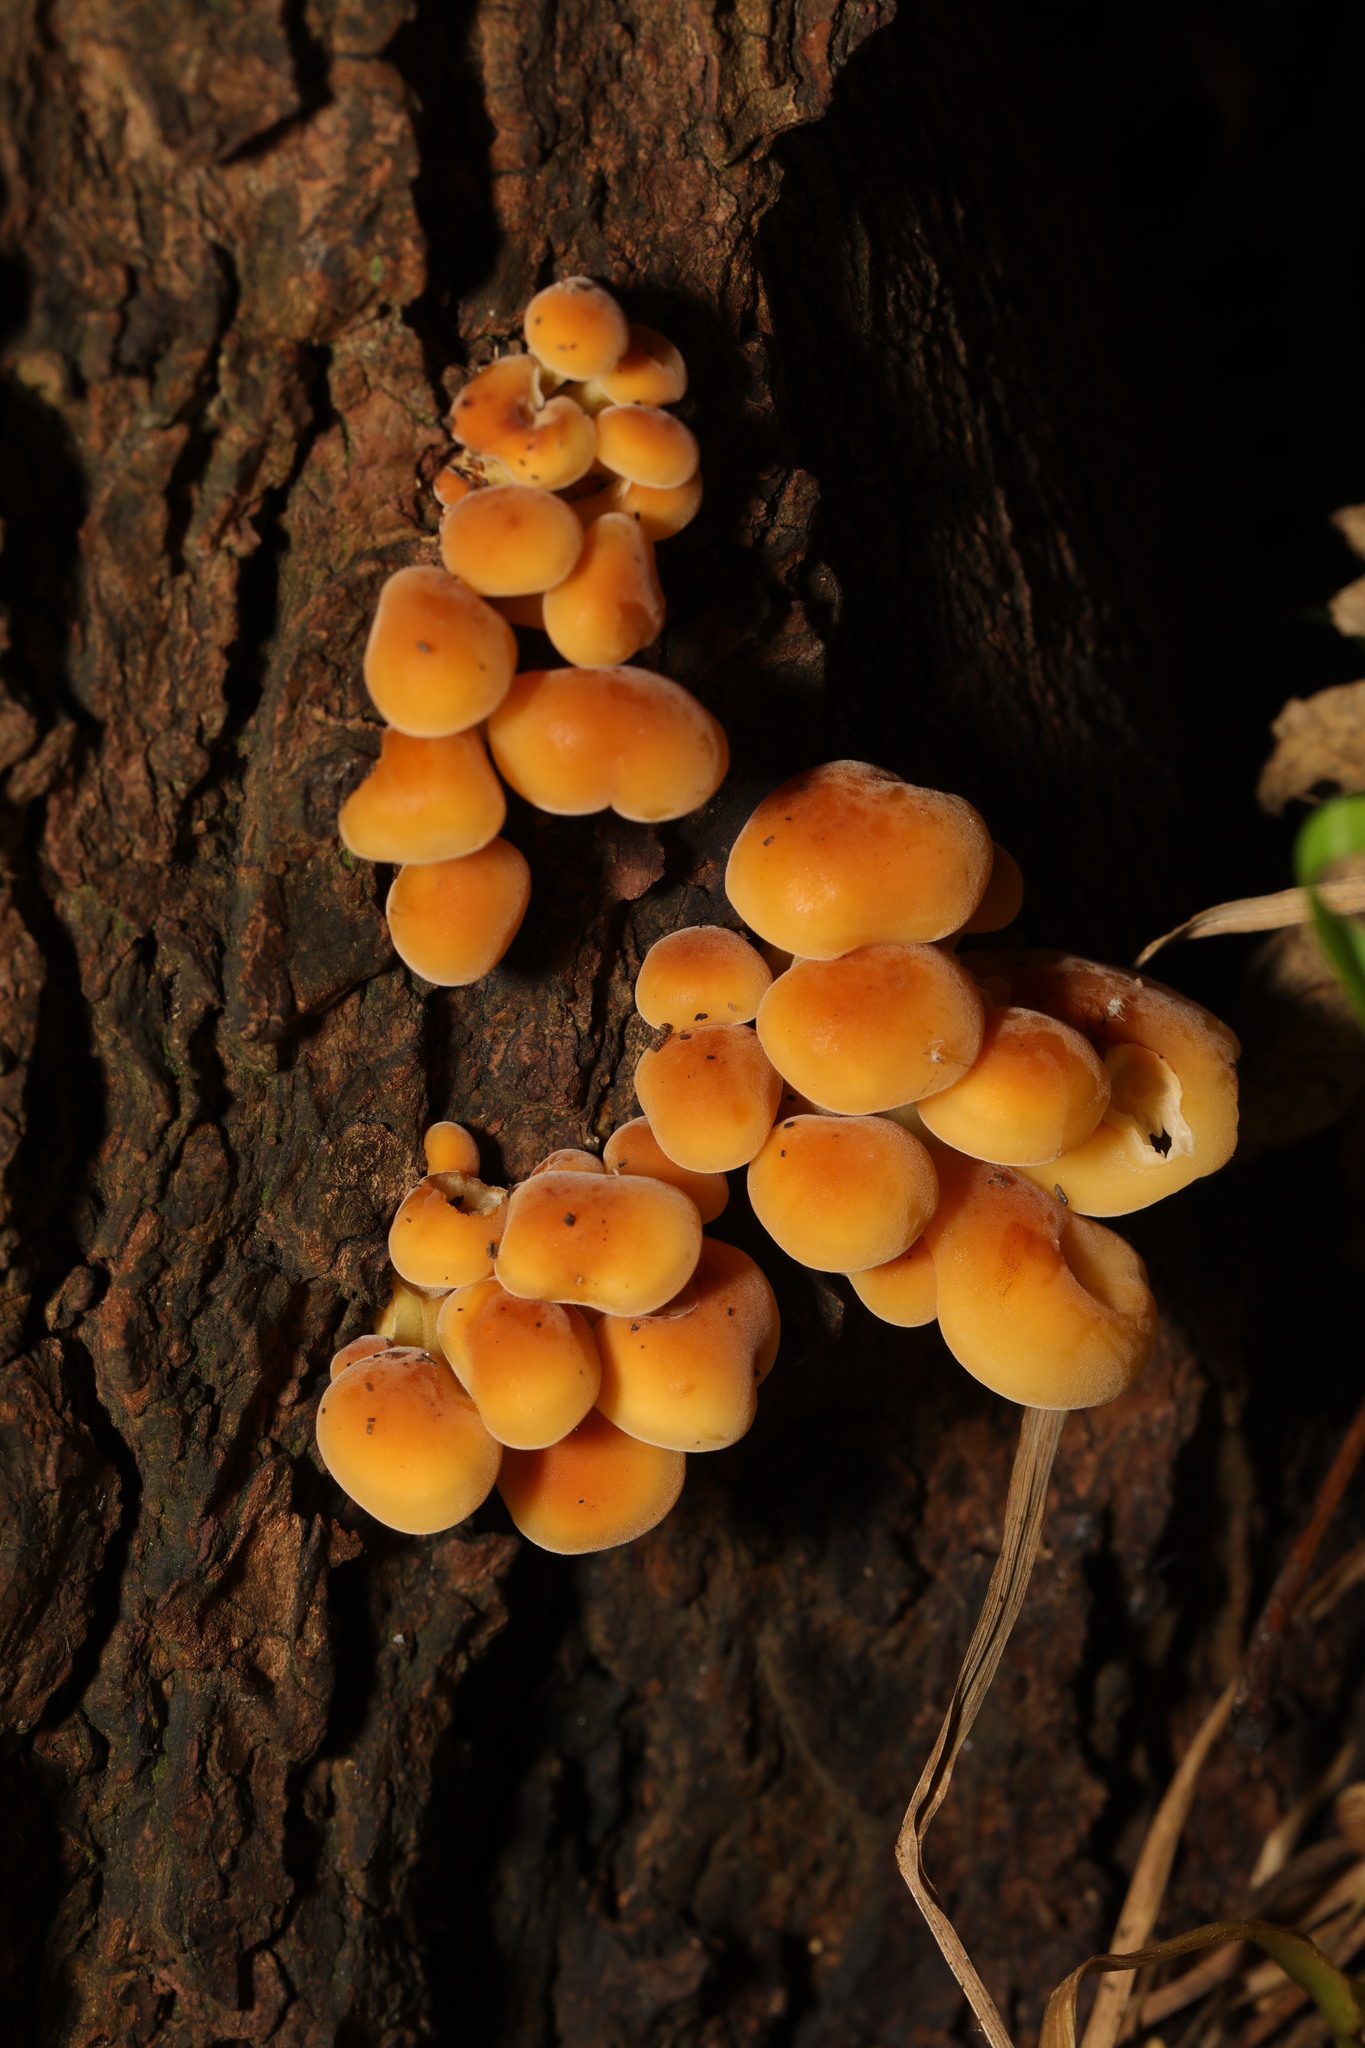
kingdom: Fungi
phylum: Basidiomycota
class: Agaricomycetes
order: Agaricales
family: Physalacriaceae
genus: Flammulina
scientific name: Flammulina
